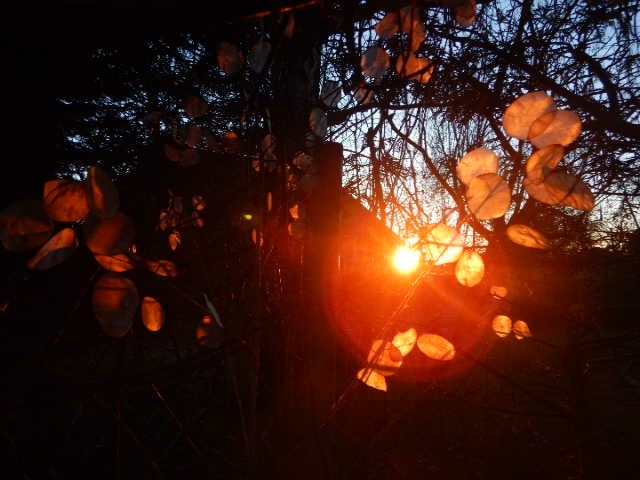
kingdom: Plantae
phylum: Tracheophyta
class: Magnoliopsida
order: Brassicales
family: Brassicaceae
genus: Lunaria
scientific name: Lunaria annua
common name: Honesty
